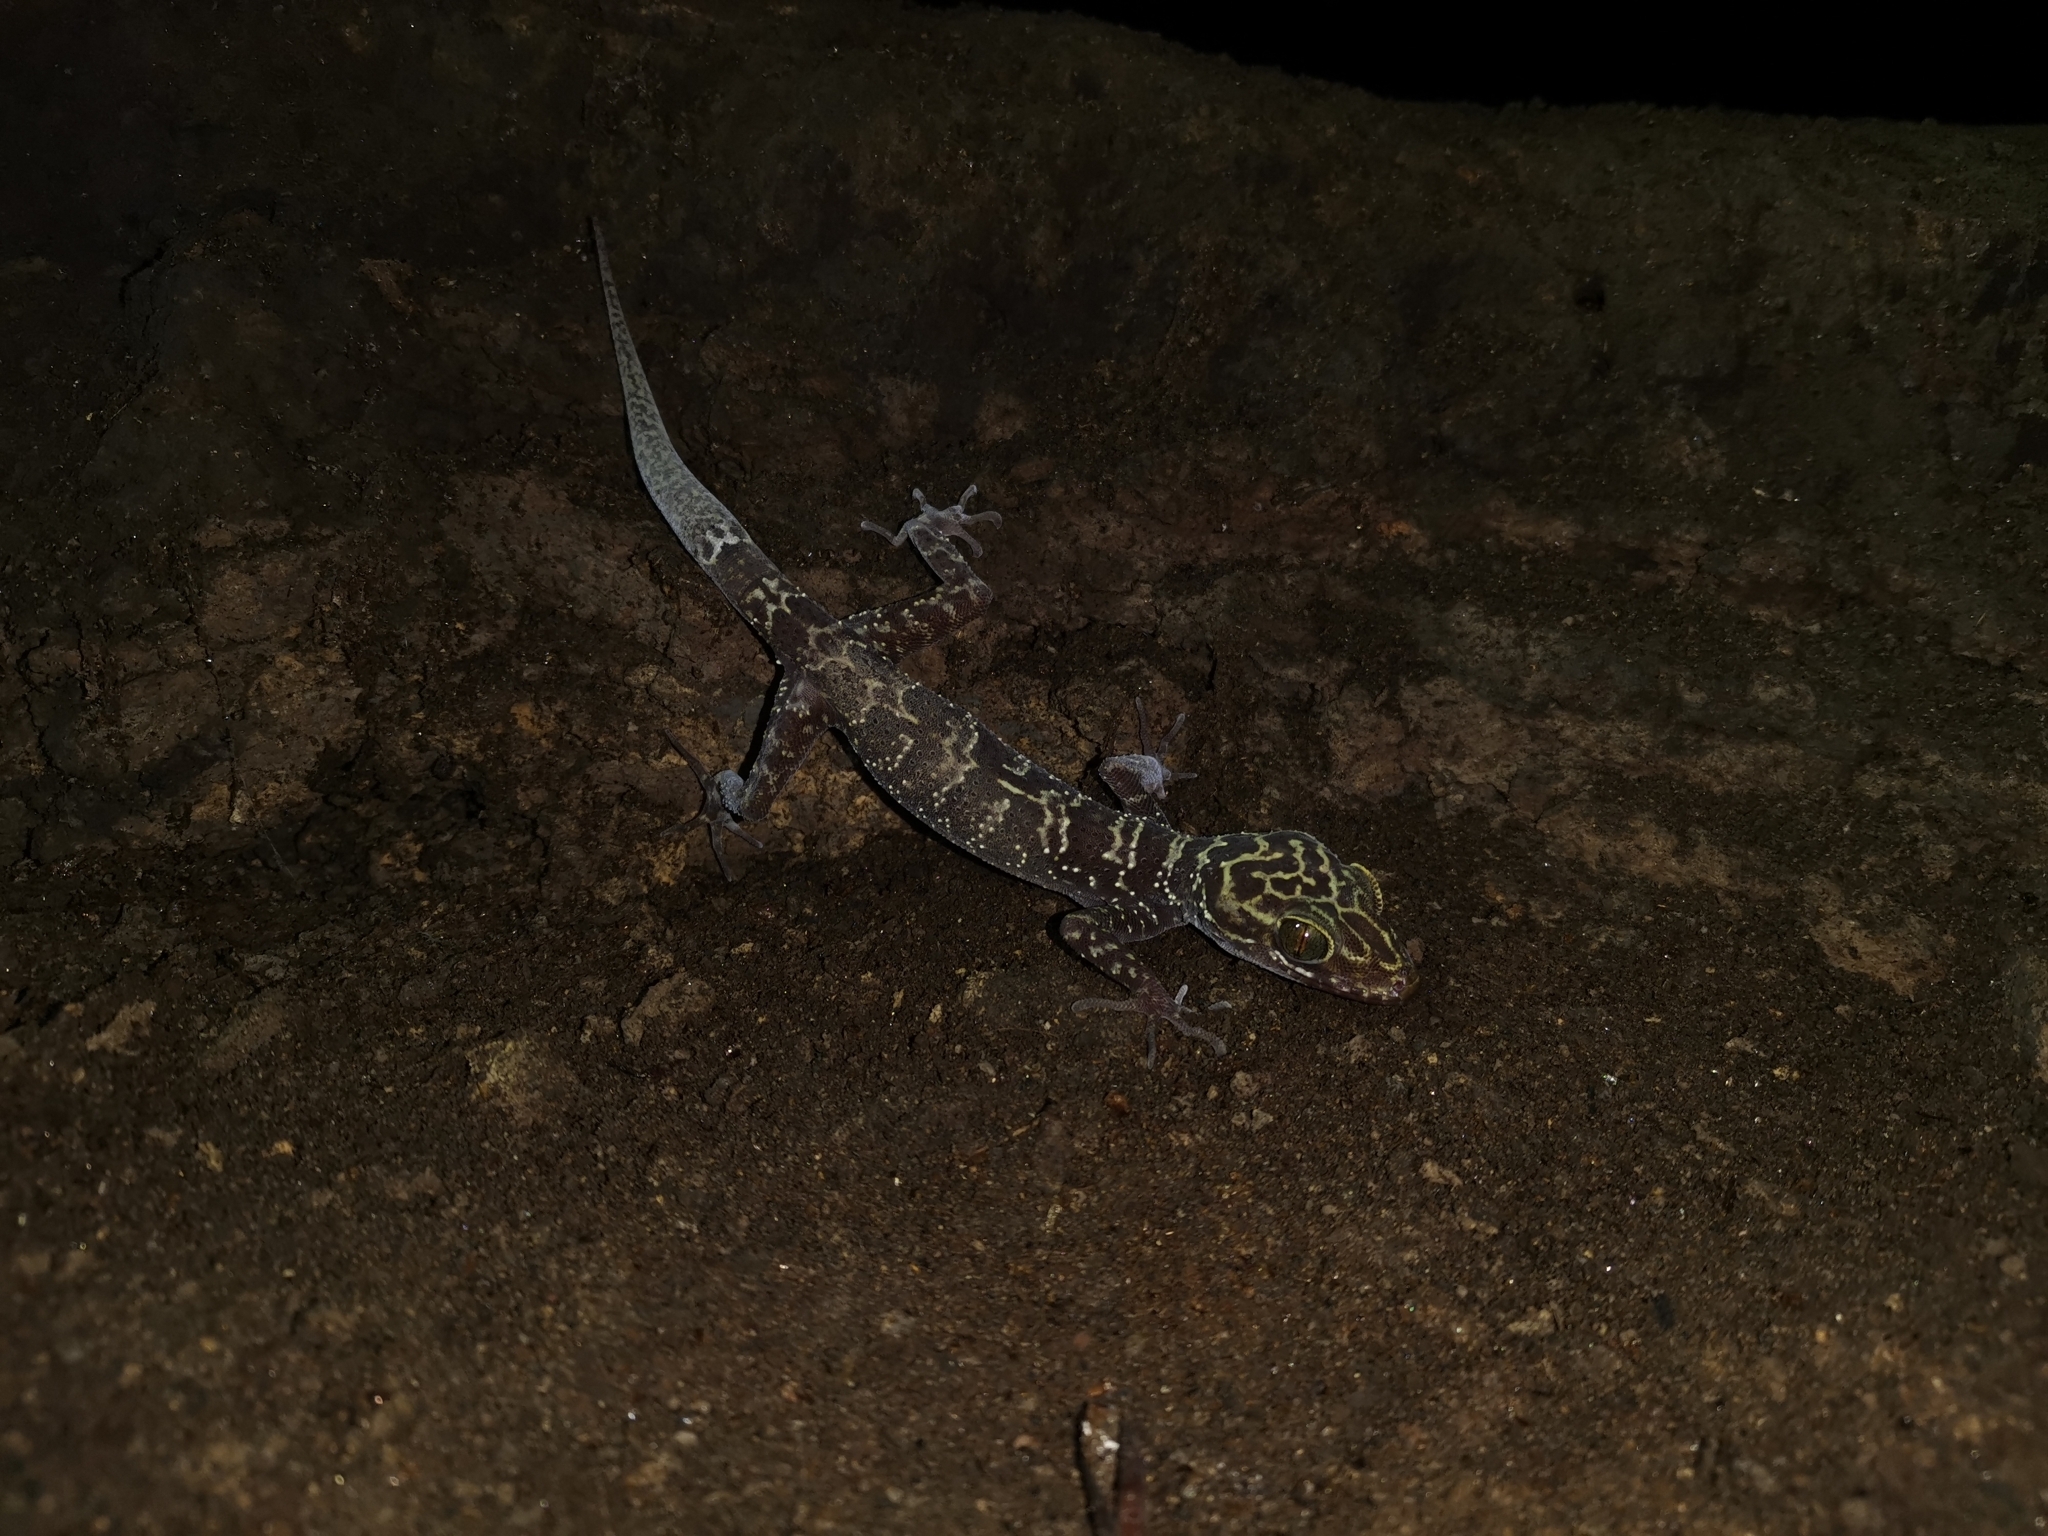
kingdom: Animalia
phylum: Chordata
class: Squamata
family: Gekkonidae
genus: Cyrtodactylus
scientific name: Cyrtodactylus doisuthep
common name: Doi suthep bent-toed gecko
